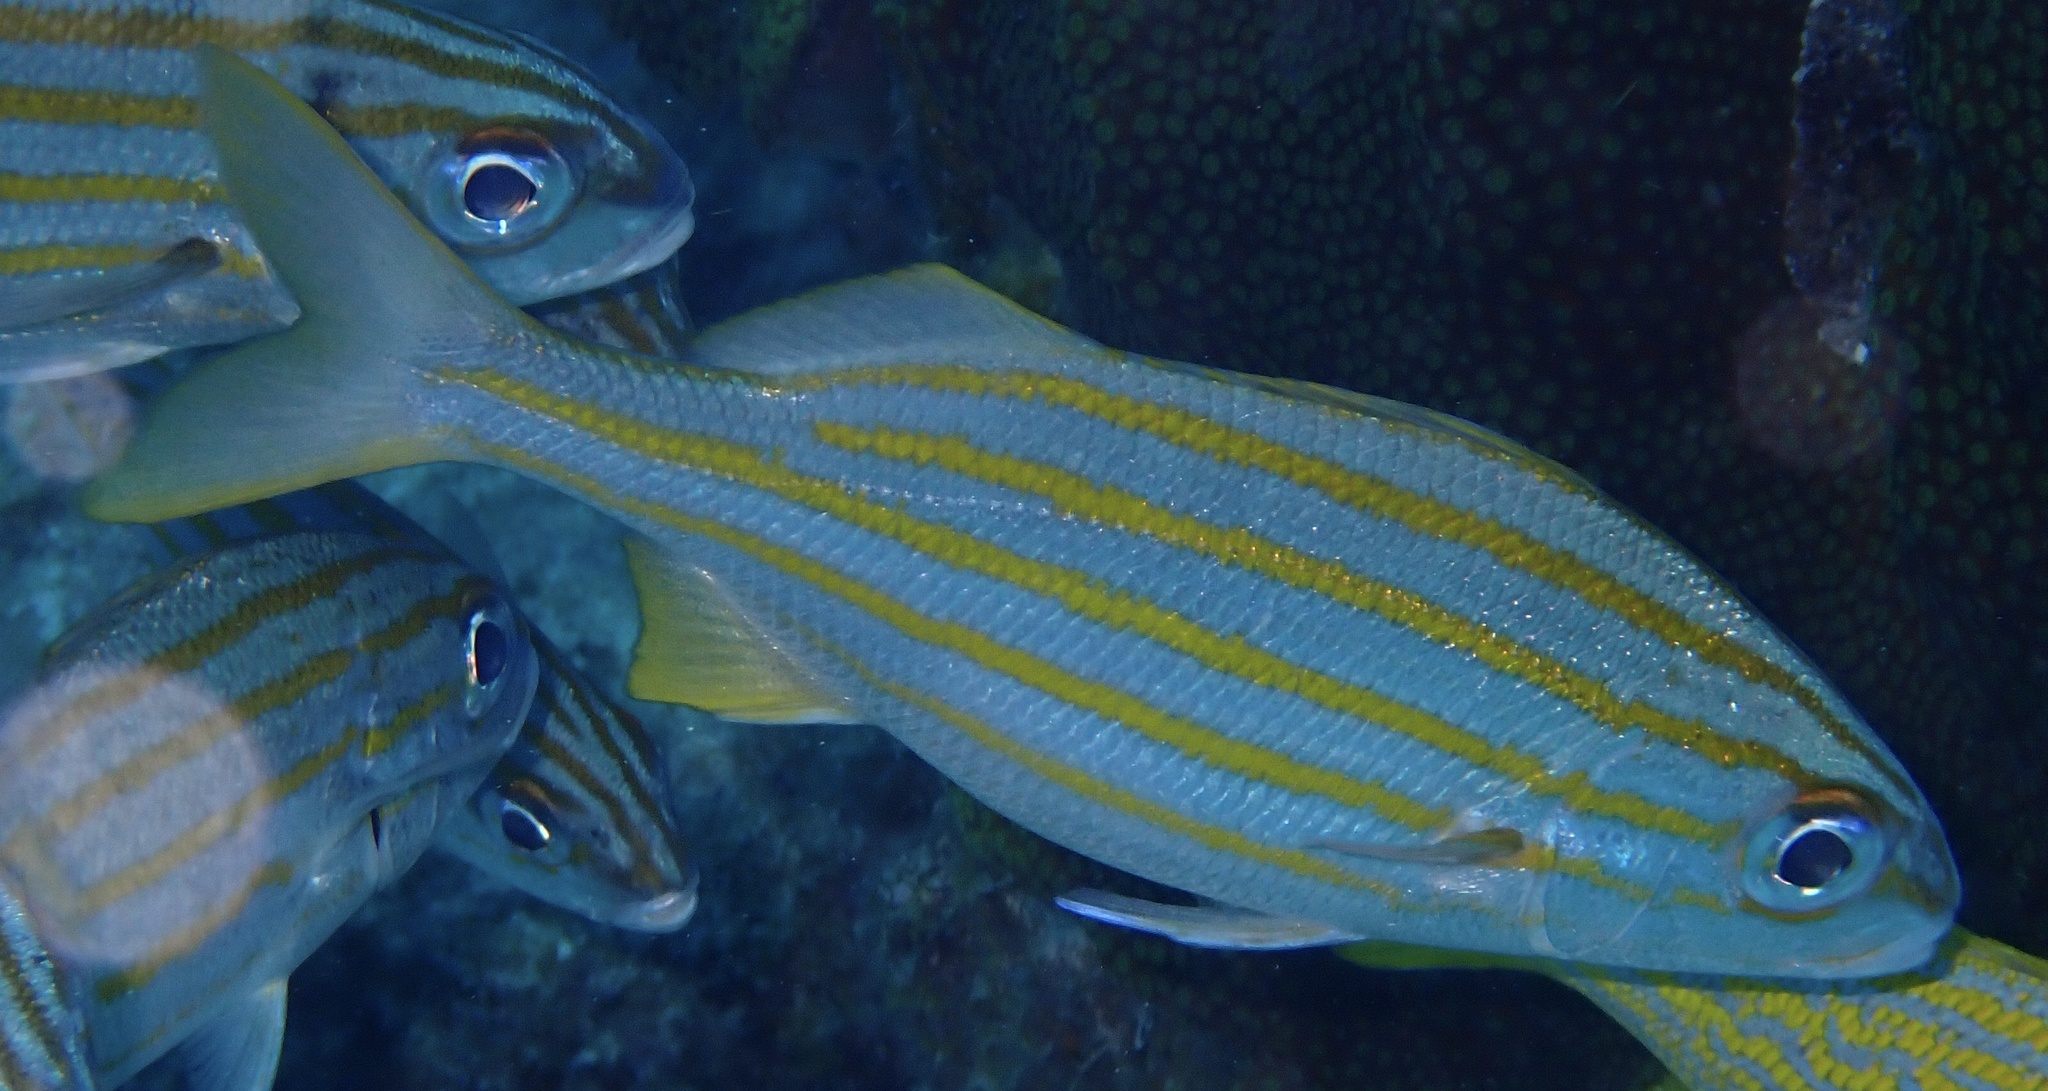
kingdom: Animalia
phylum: Chordata
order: Perciformes
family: Haemulidae
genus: Haemulon
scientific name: Haemulon chrysargyreum
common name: Smallmouth grunt
